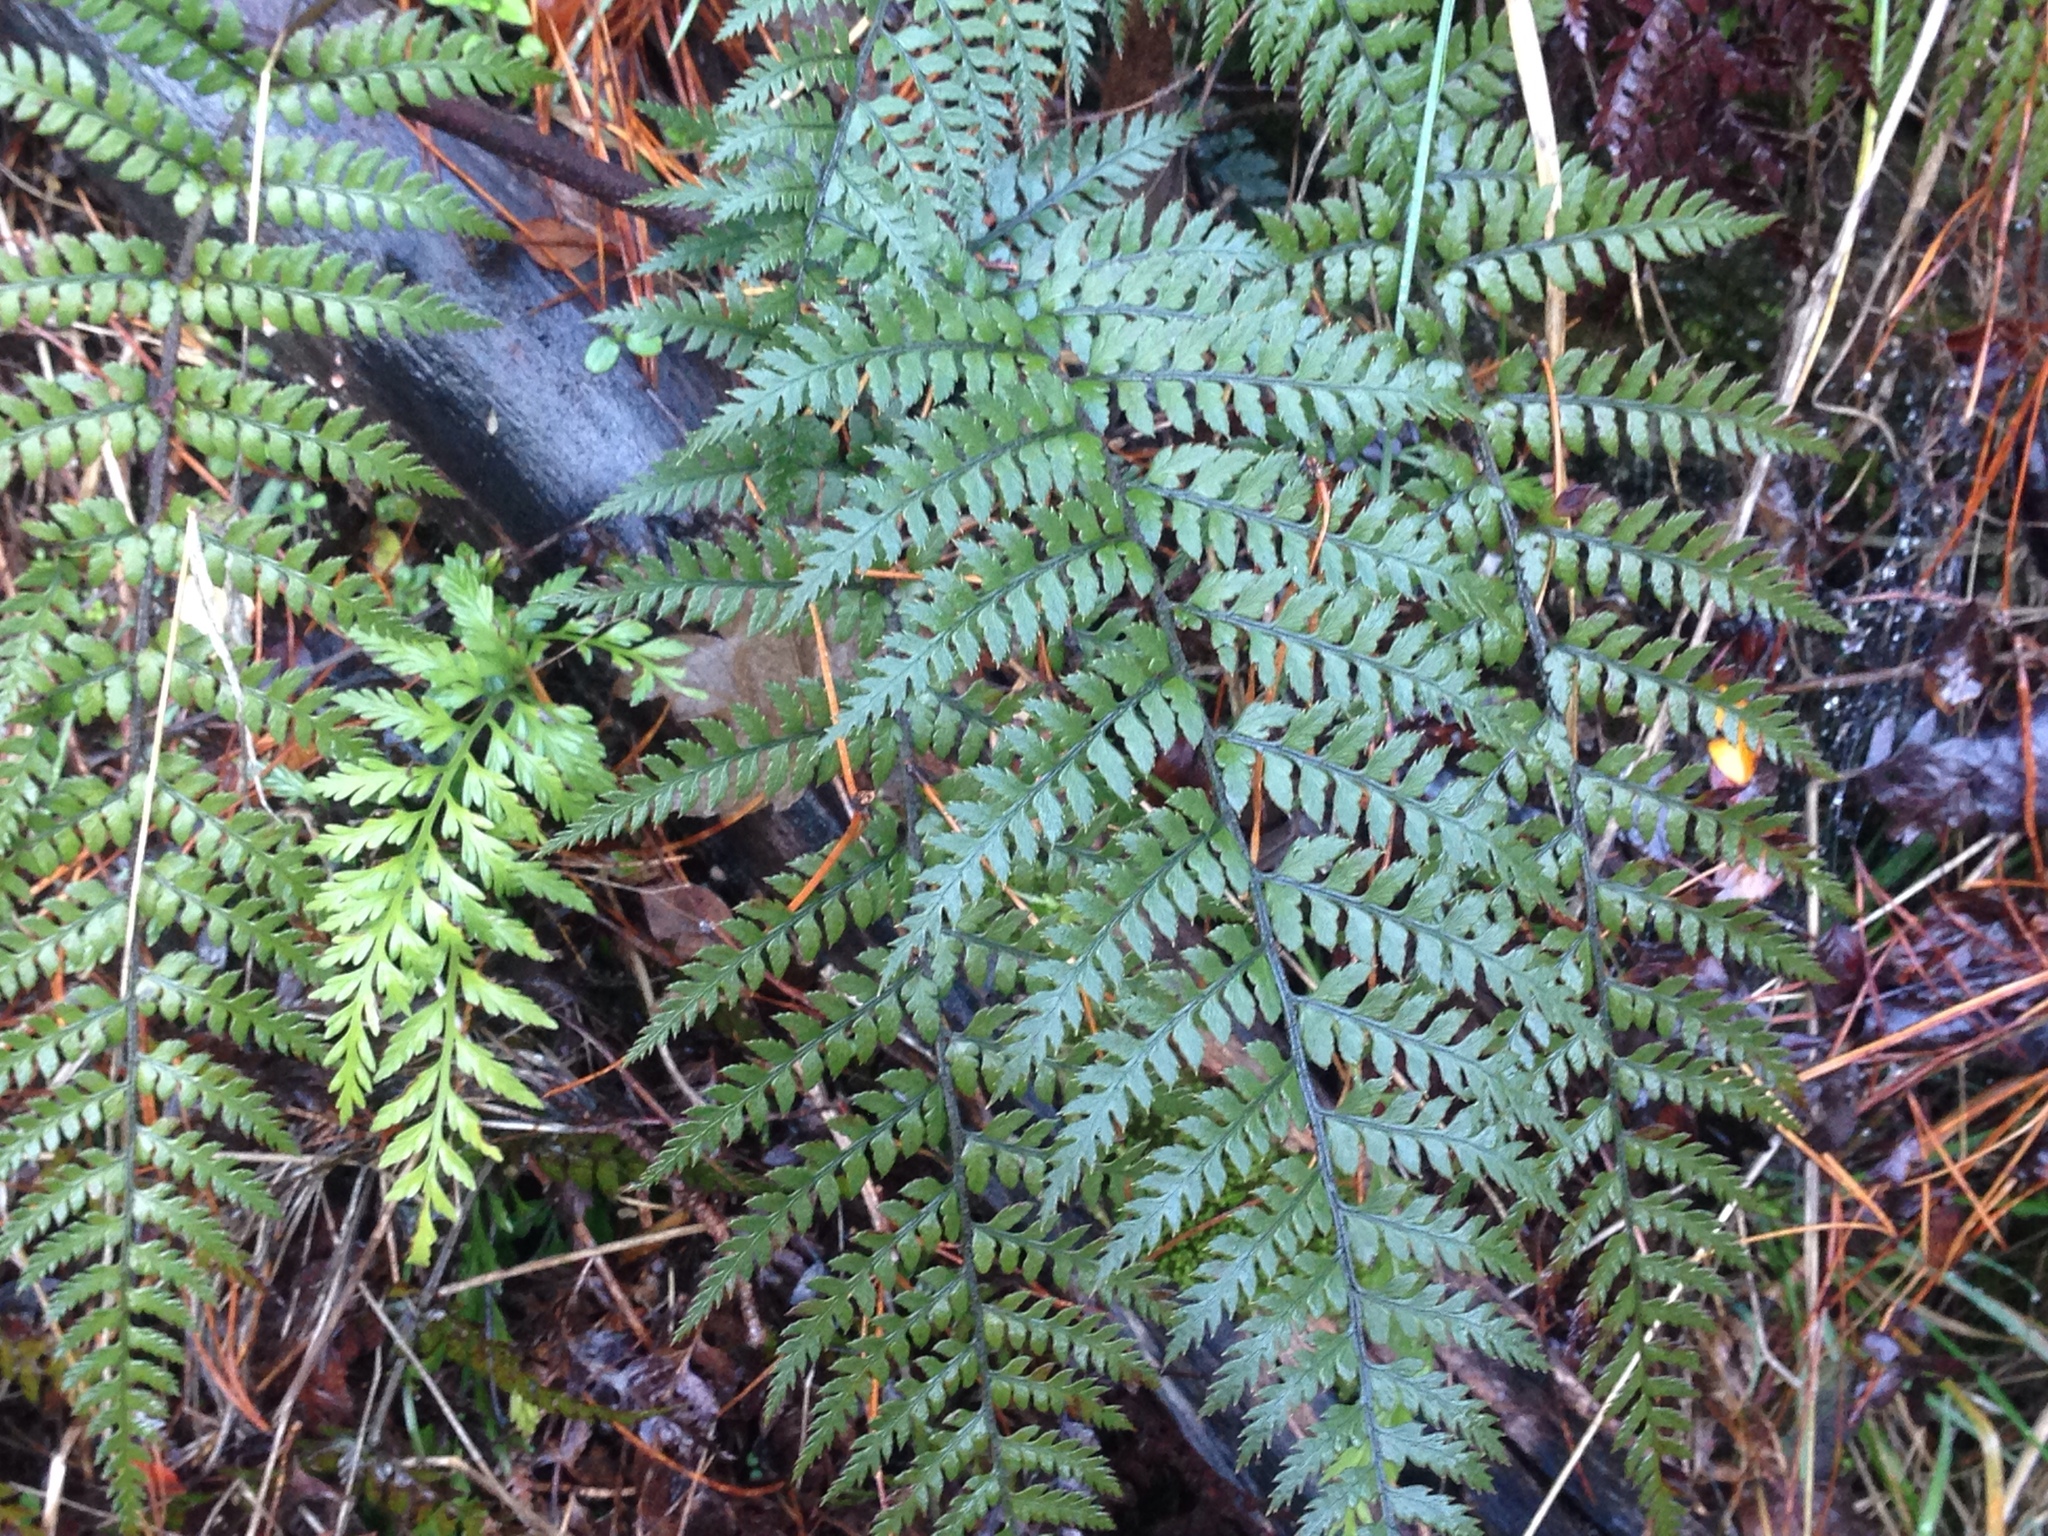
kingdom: Plantae
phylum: Tracheophyta
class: Polypodiopsida
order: Polypodiales
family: Dryopteridaceae
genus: Polystichum
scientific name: Polystichum neozelandicum
